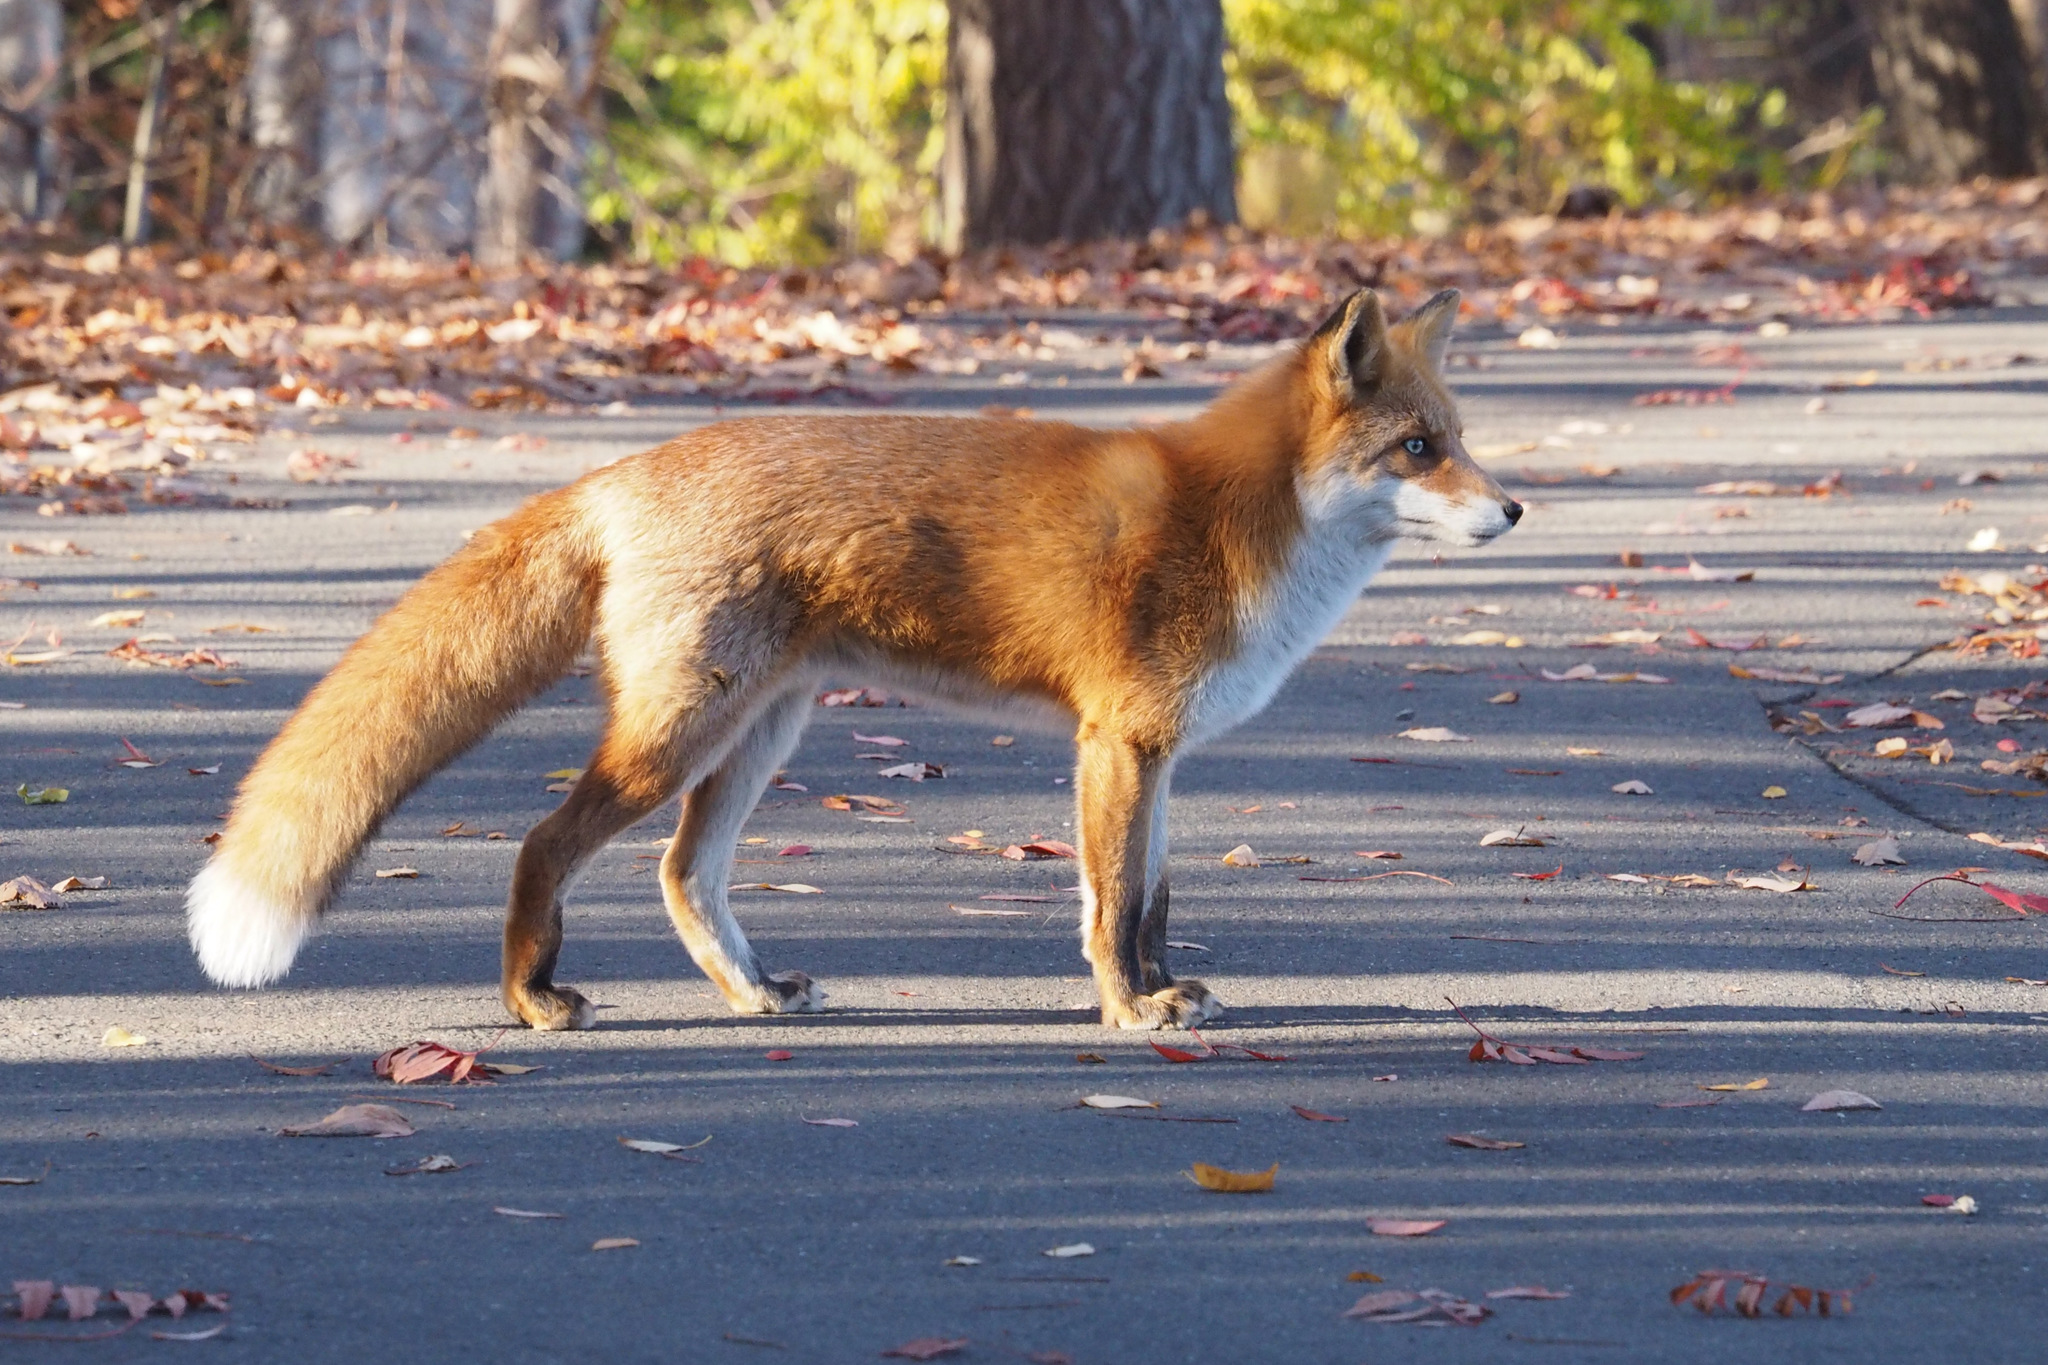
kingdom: Animalia
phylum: Chordata
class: Mammalia
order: Carnivora
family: Canidae
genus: Vulpes
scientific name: Vulpes vulpes
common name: Red fox
